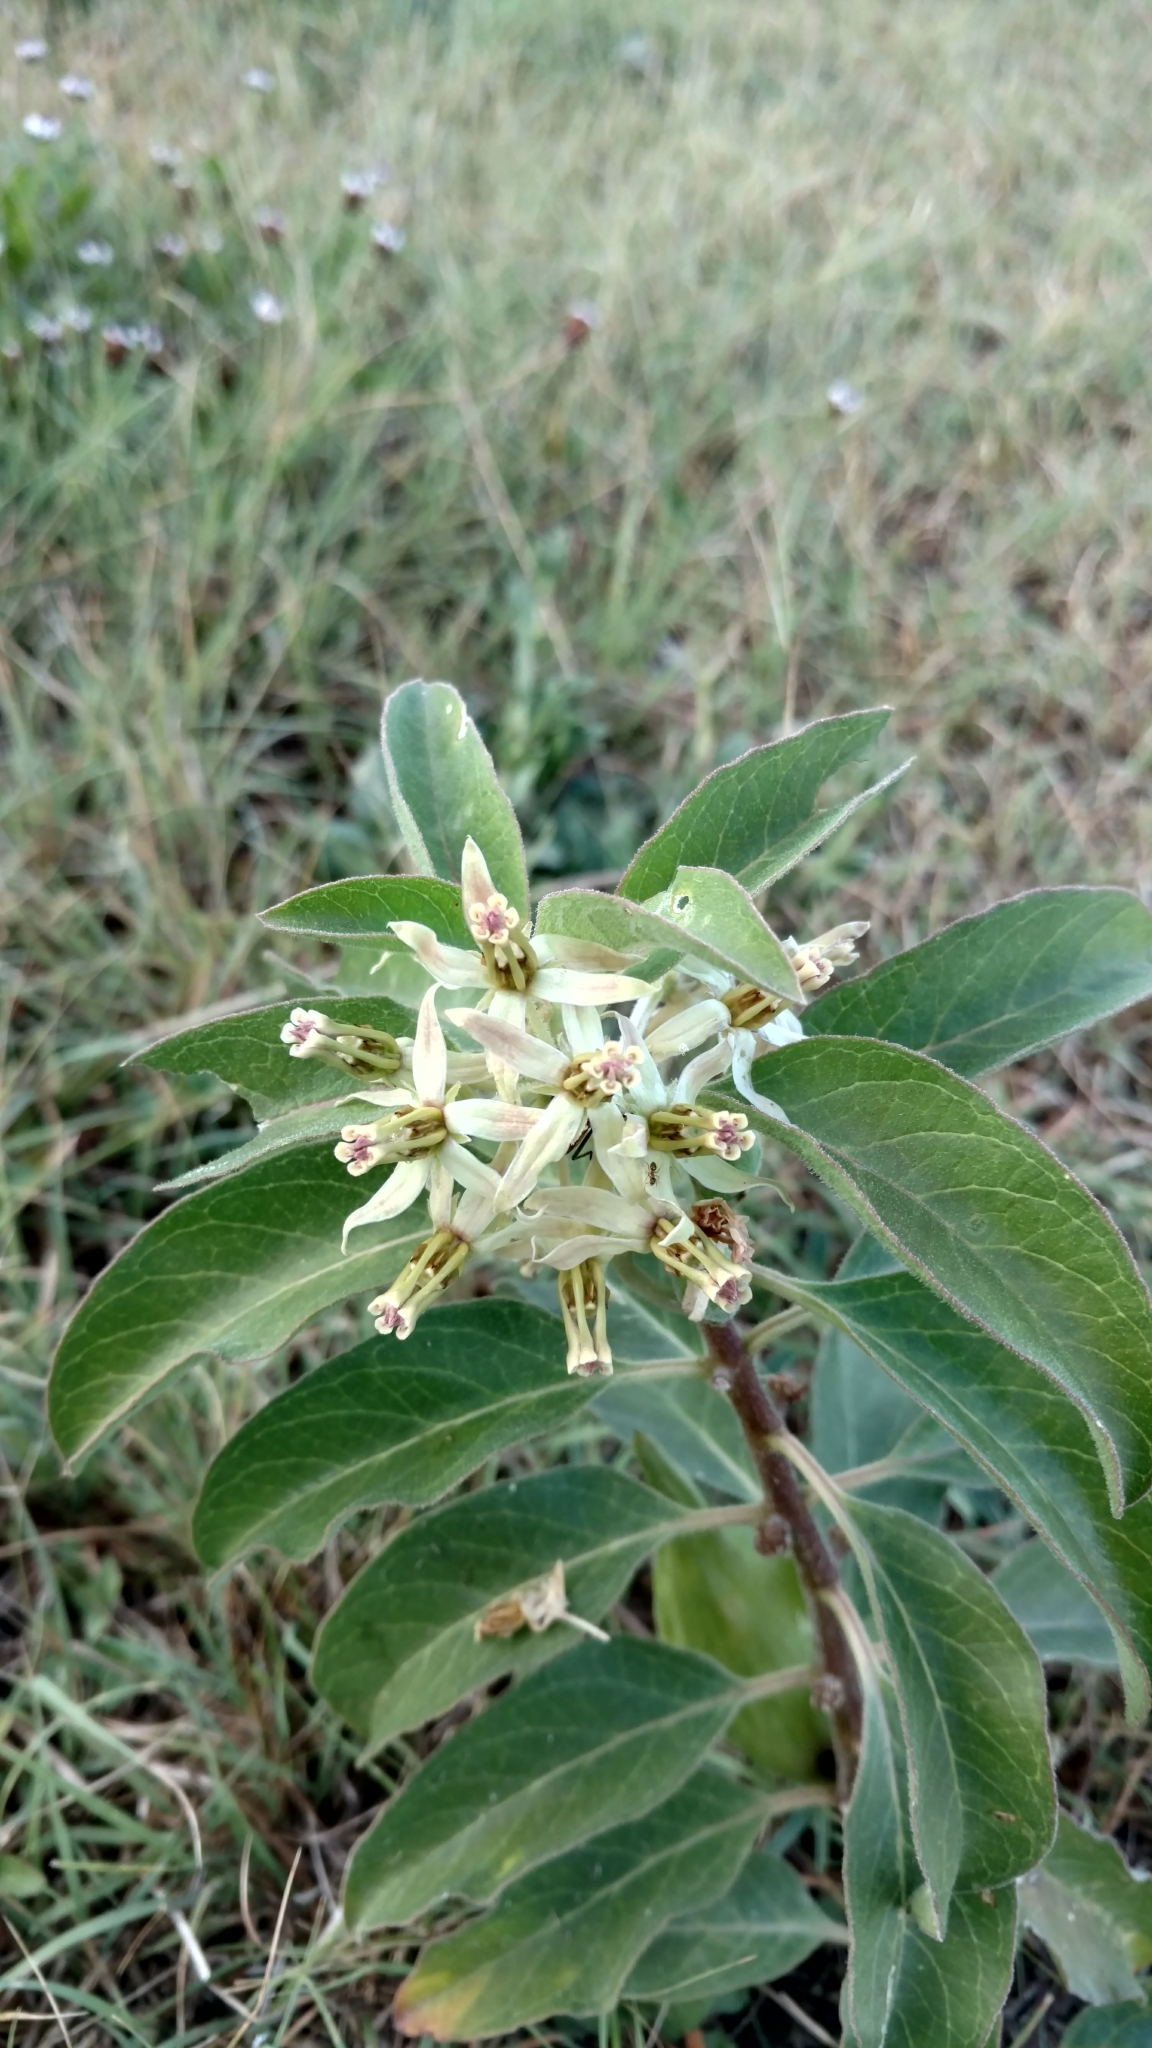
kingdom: Plantae
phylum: Tracheophyta
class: Magnoliopsida
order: Gentianales
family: Apocynaceae
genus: Asclepias
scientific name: Asclepias oenotheroides
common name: Zizotes milkweed
